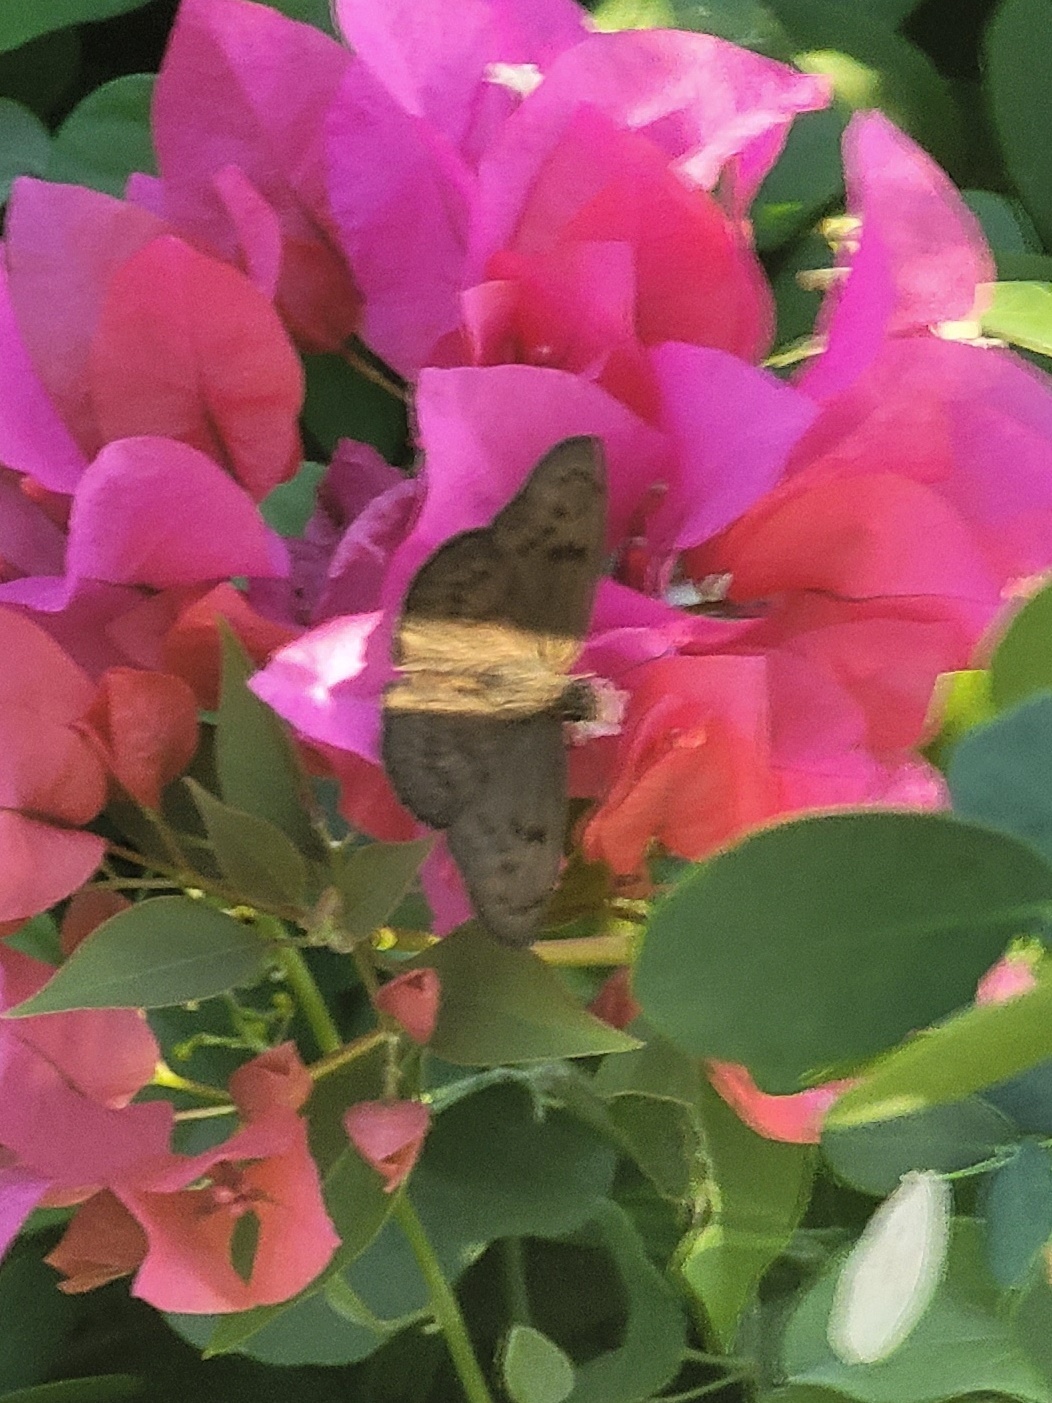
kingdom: Animalia
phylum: Arthropoda
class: Insecta
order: Lepidoptera
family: Hesperiidae
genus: Grais
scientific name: Grais stigmaticus
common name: Hermit skipper
